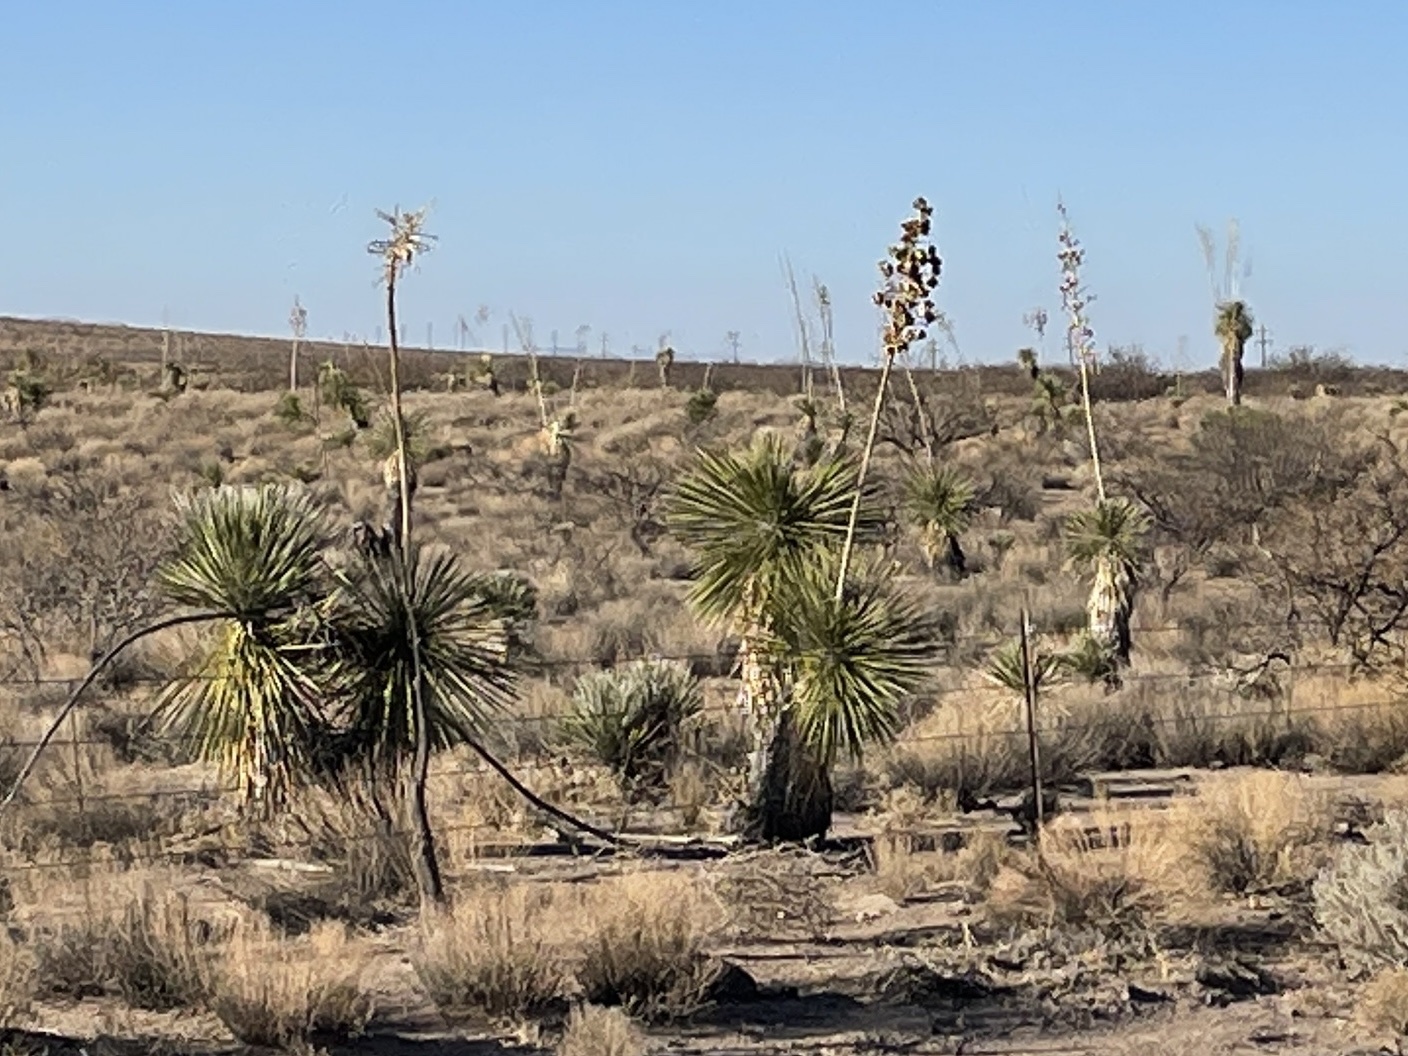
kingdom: Plantae
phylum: Tracheophyta
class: Liliopsida
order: Asparagales
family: Asparagaceae
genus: Yucca
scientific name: Yucca elata
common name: Palmella
